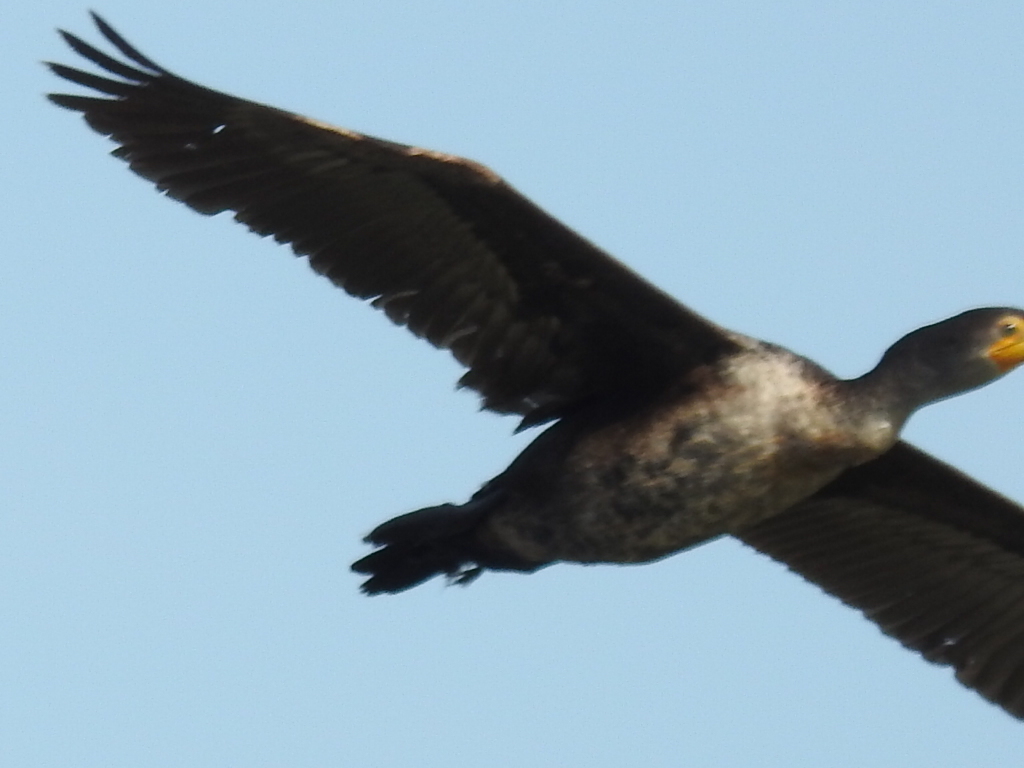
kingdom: Animalia
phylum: Chordata
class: Aves
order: Suliformes
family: Phalacrocoracidae
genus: Phalacrocorax
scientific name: Phalacrocorax auritus
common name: Double-crested cormorant
